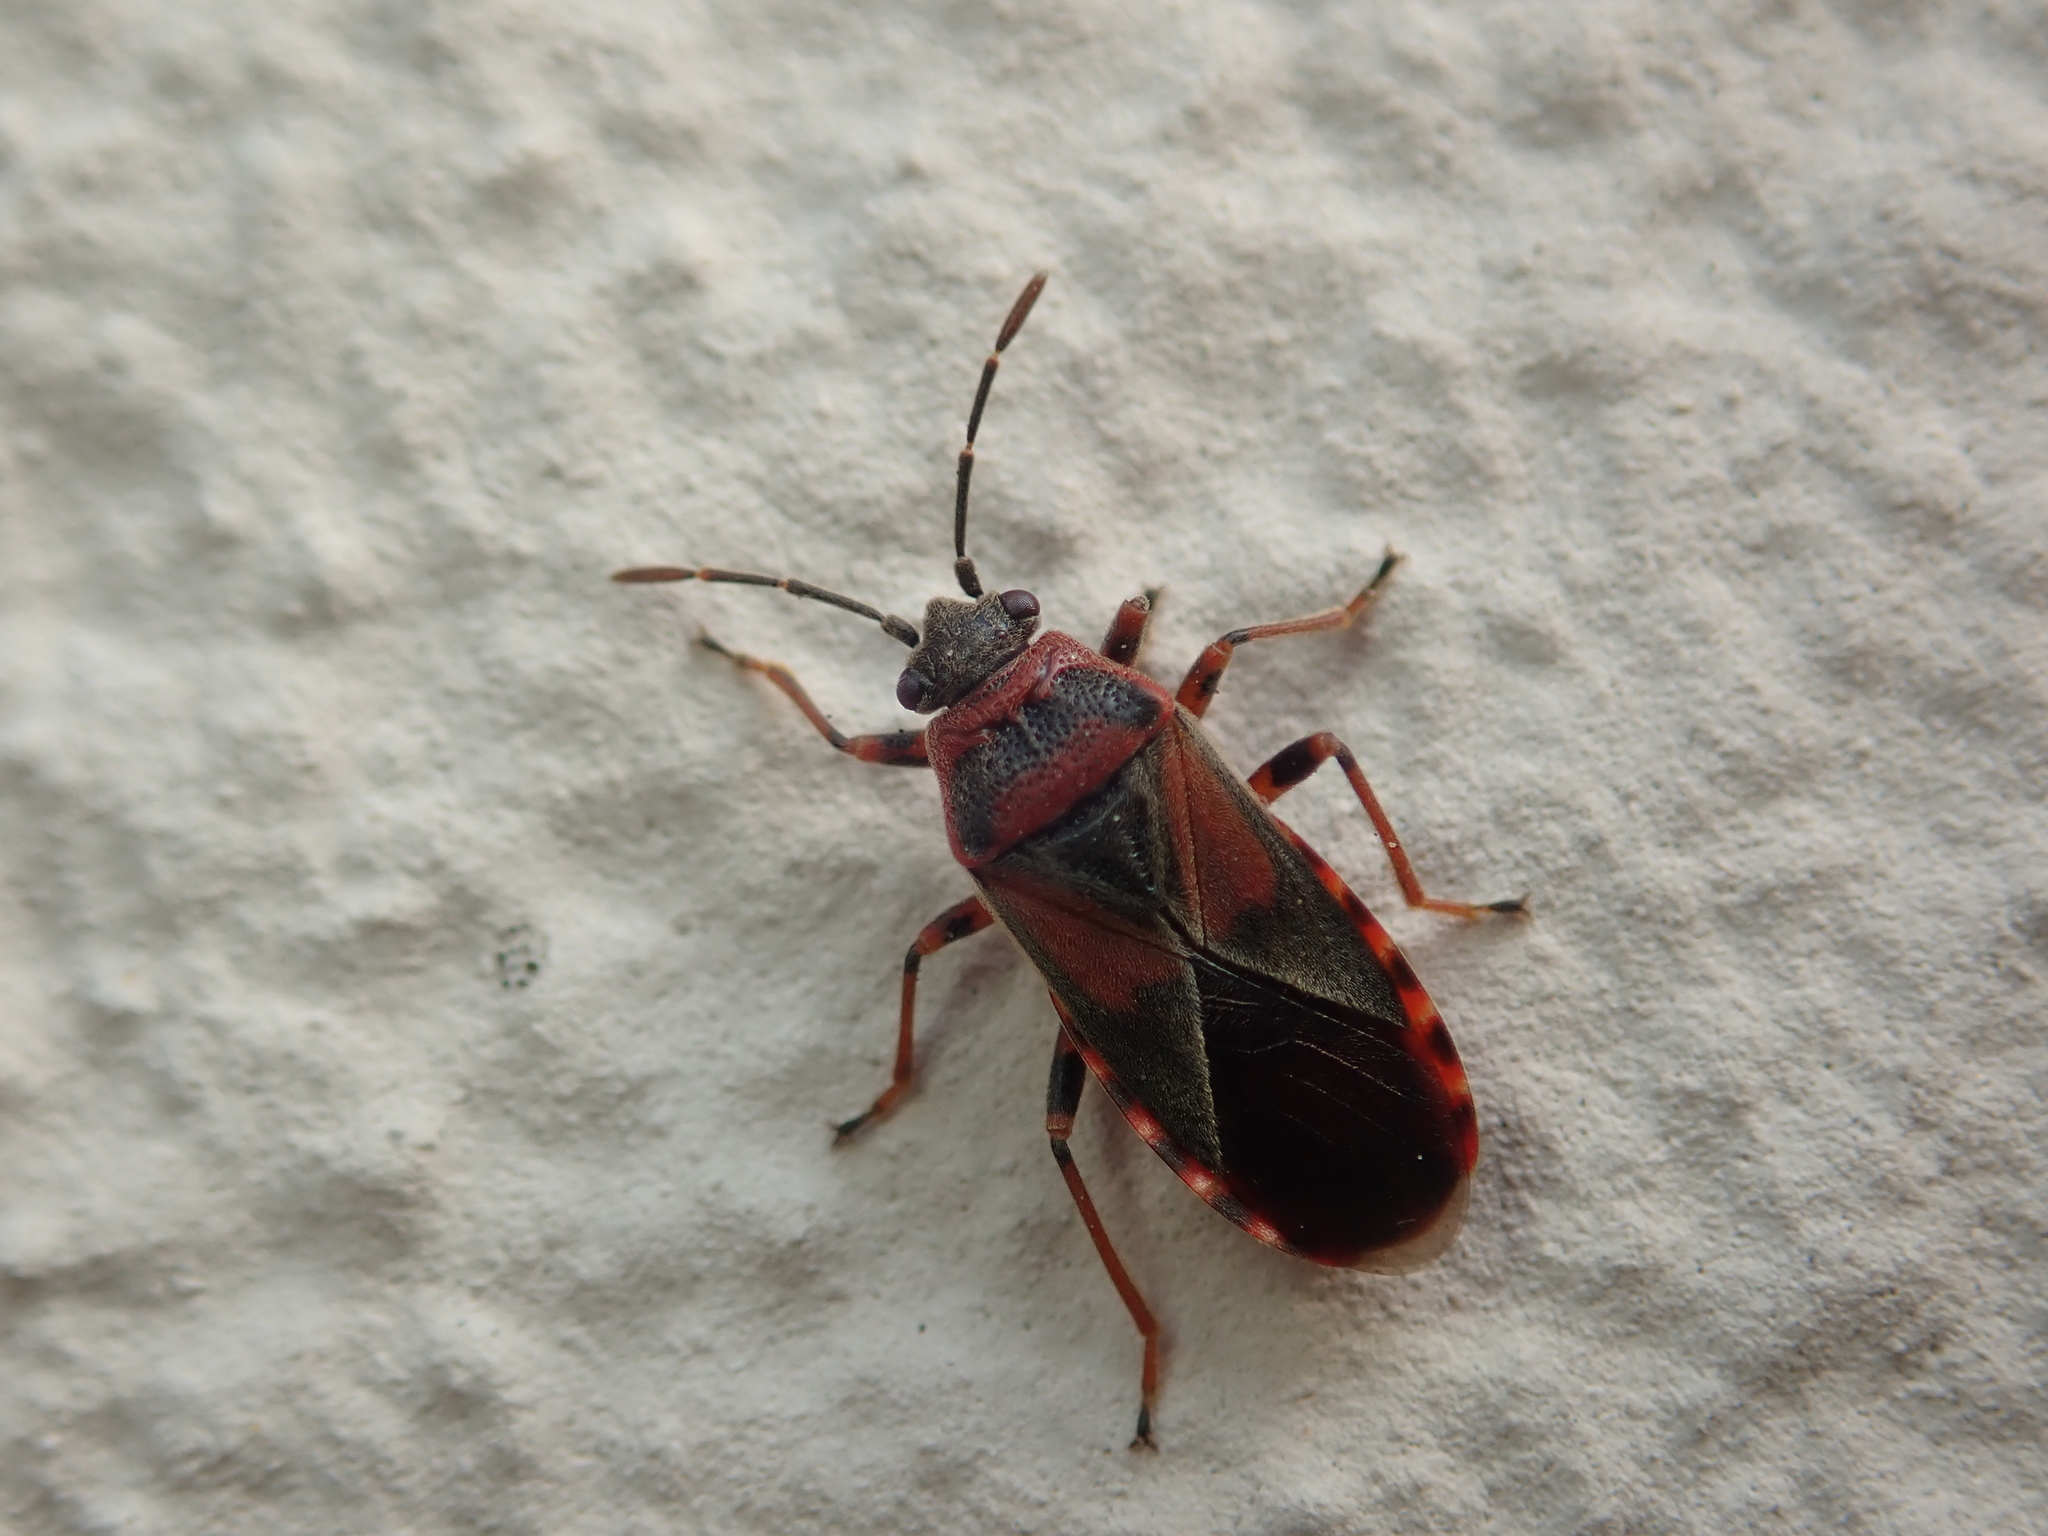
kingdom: Animalia
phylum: Arthropoda
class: Insecta
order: Hemiptera
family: Lygaeidae
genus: Arocatus
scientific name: Arocatus melanocephalus
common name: Lygaeid bug
